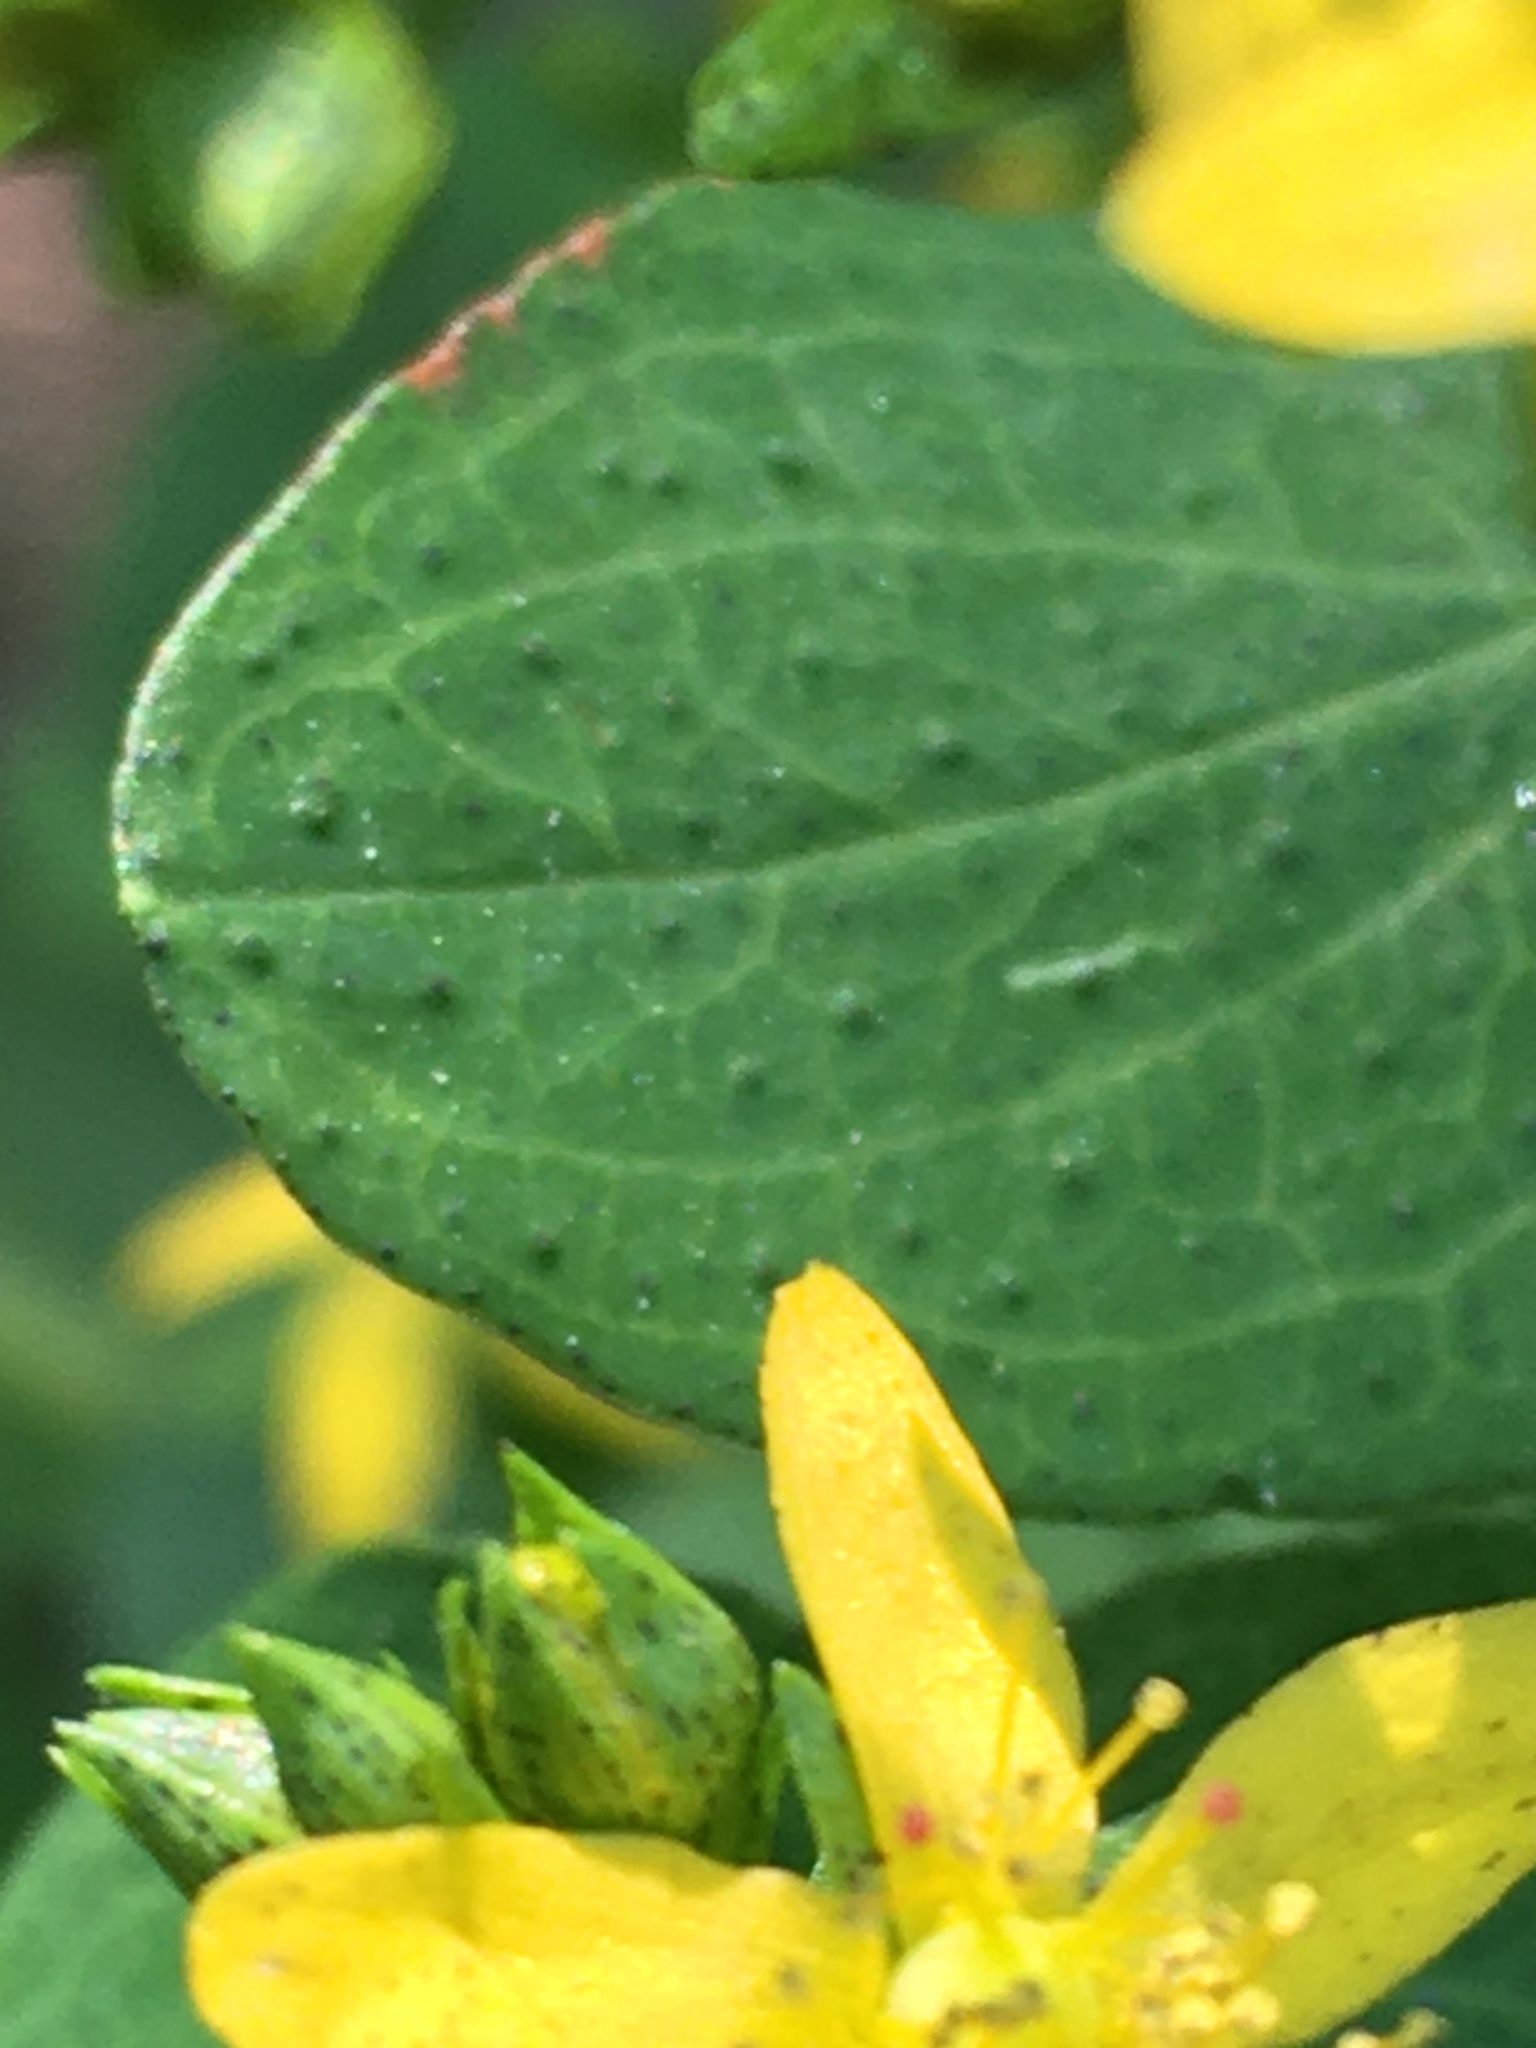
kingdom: Plantae
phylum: Tracheophyta
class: Magnoliopsida
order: Malpighiales
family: Hypericaceae
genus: Hypericum
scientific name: Hypericum punctatum
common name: Spotted st. john's-wort
